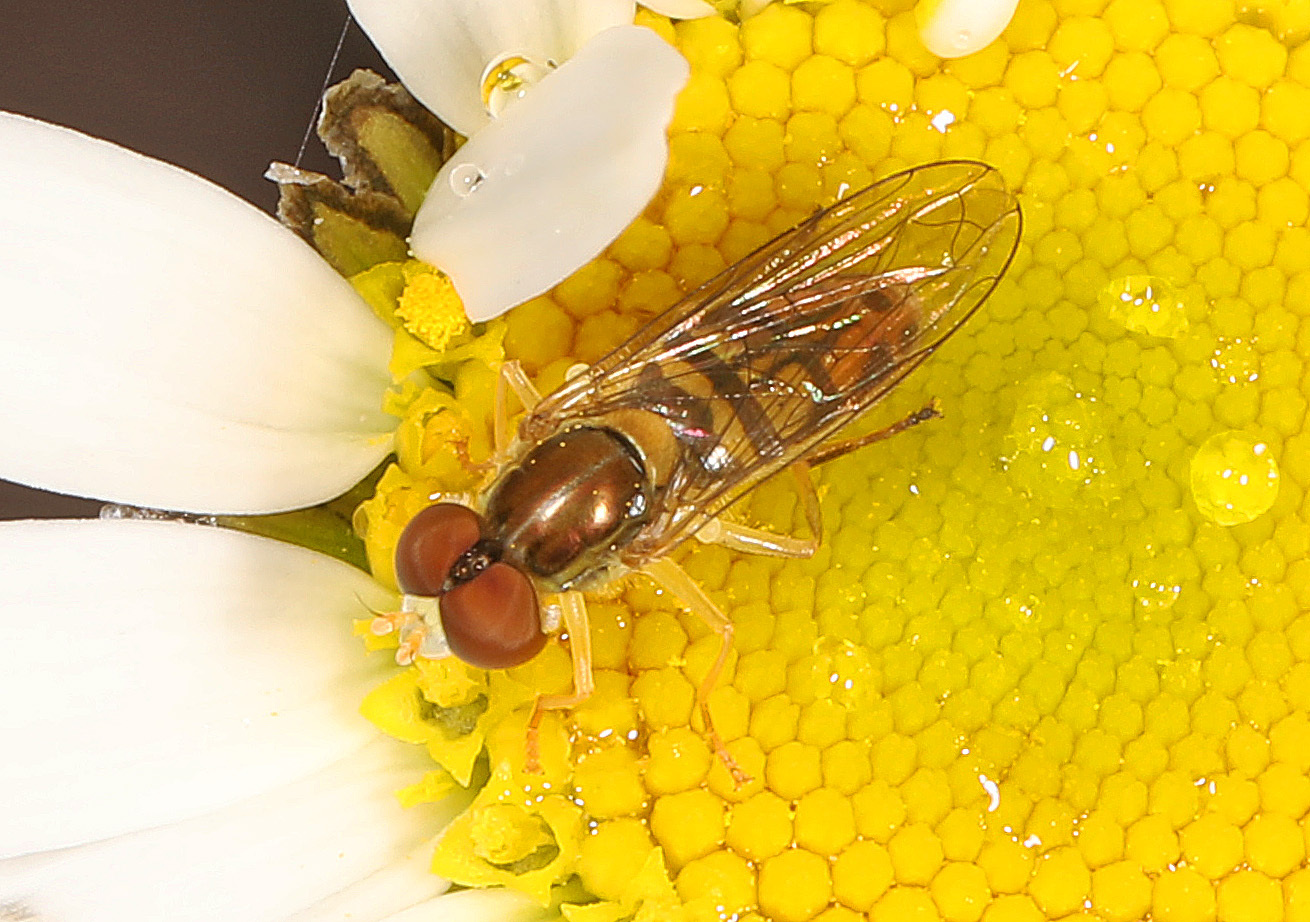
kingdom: Animalia
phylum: Arthropoda
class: Insecta
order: Diptera
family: Syrphidae
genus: Toxomerus
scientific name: Toxomerus marginatus
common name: Syrphid fly
